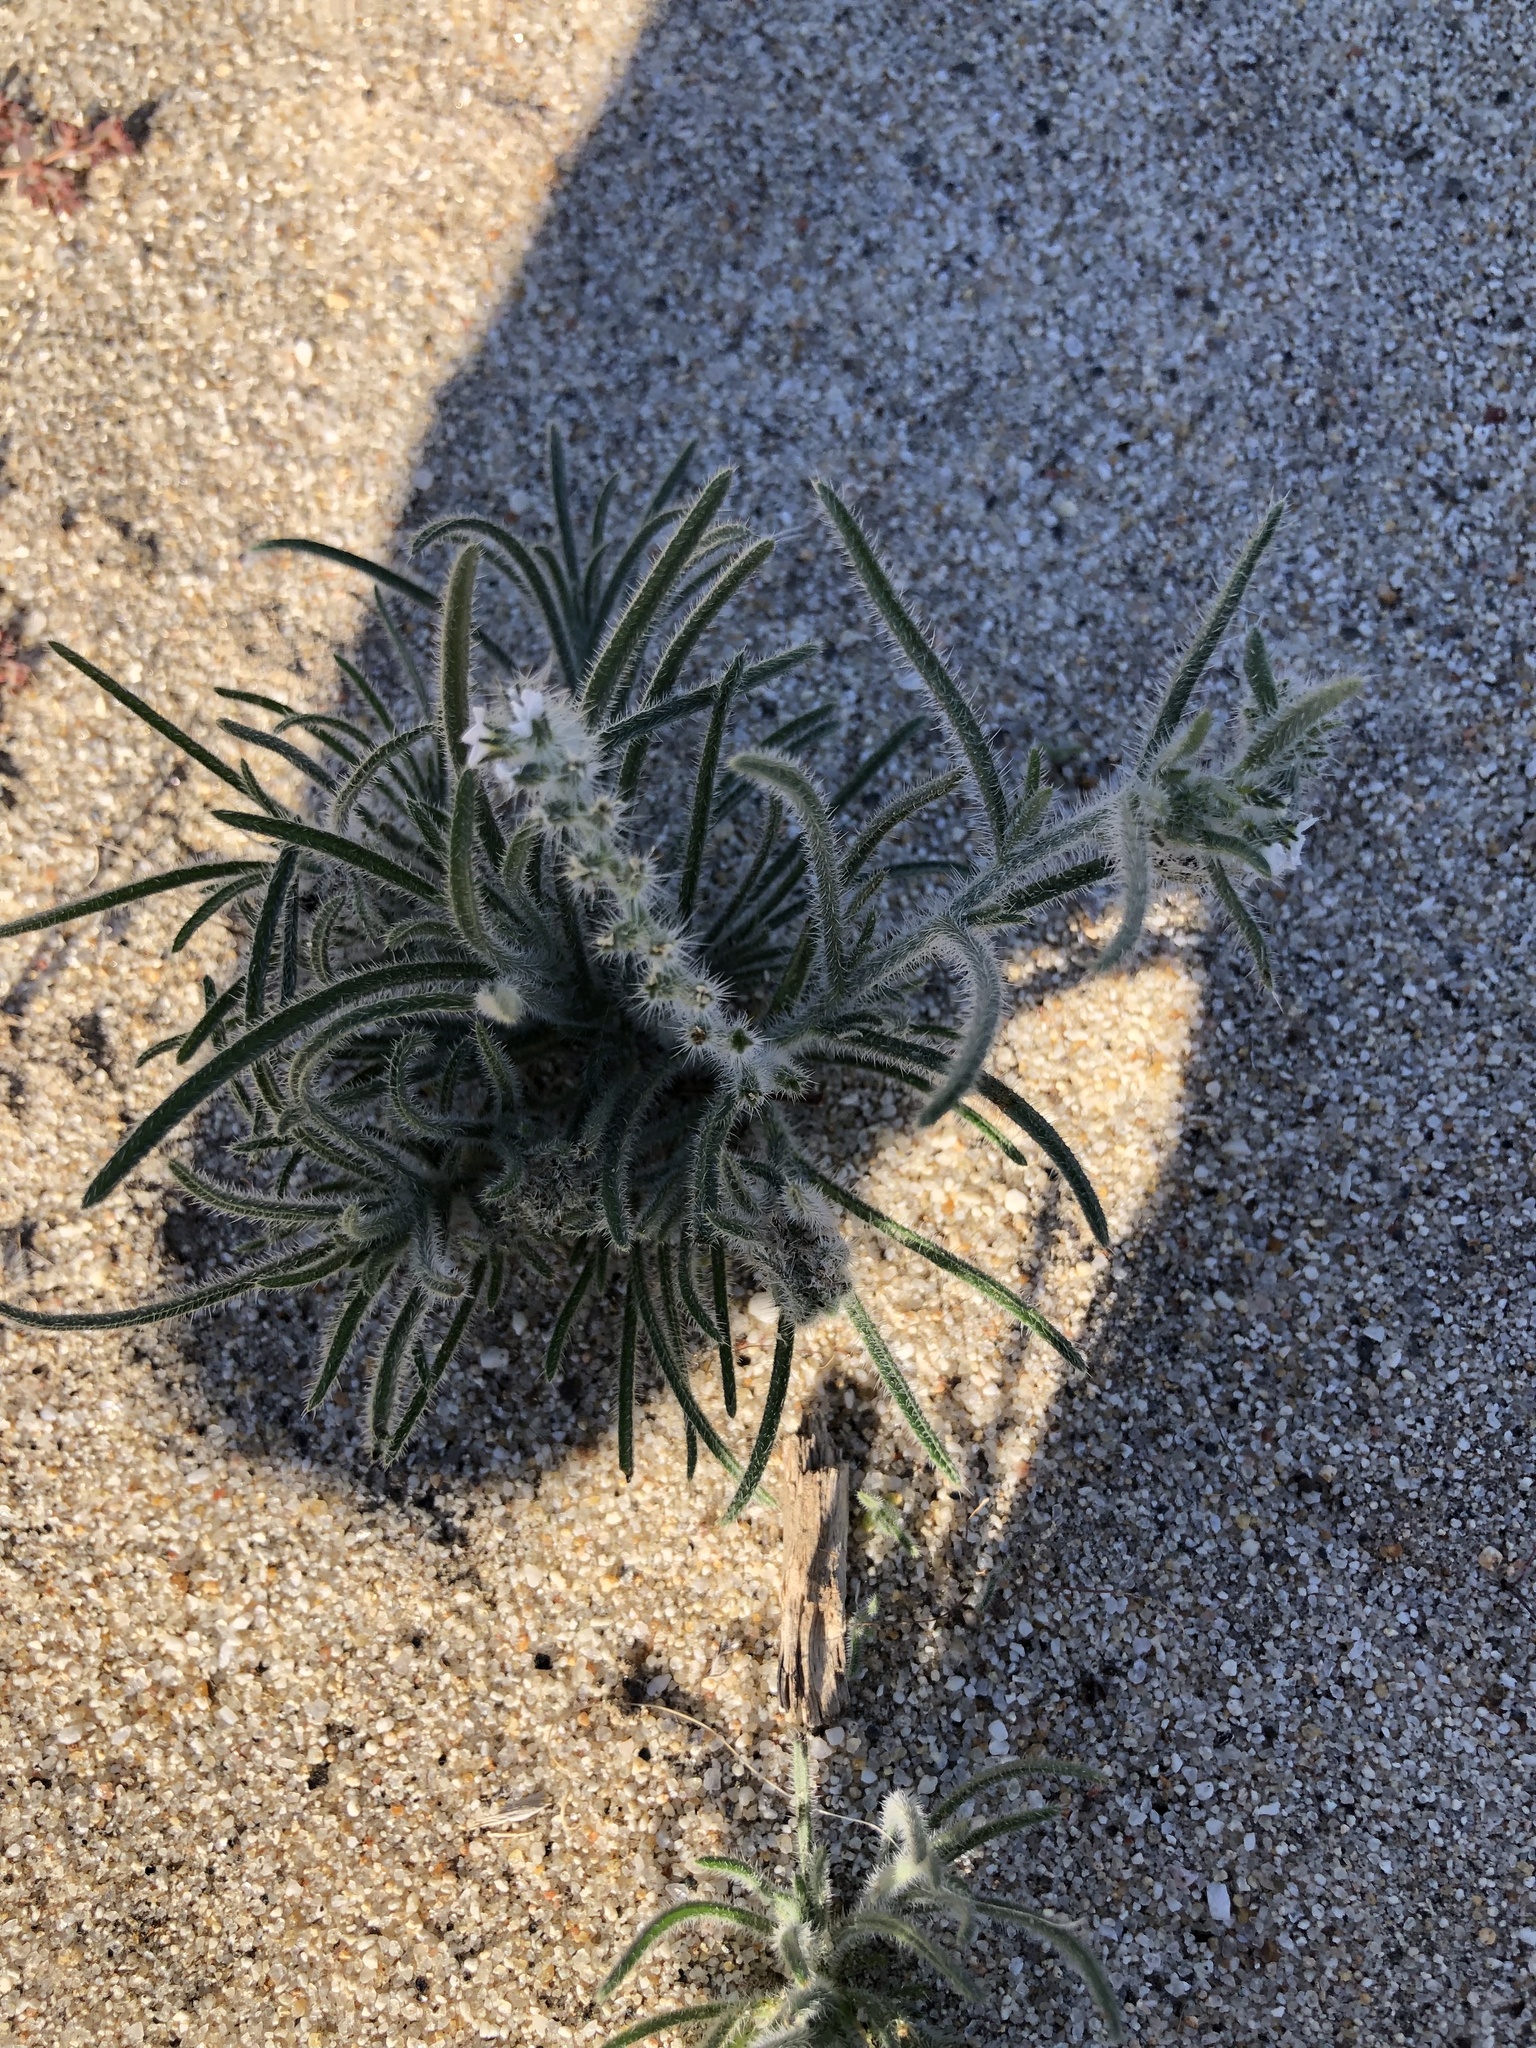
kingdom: Plantae
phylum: Tracheophyta
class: Magnoliopsida
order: Boraginales
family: Boraginaceae
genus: Johnstonella
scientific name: Johnstonella angustifolia
